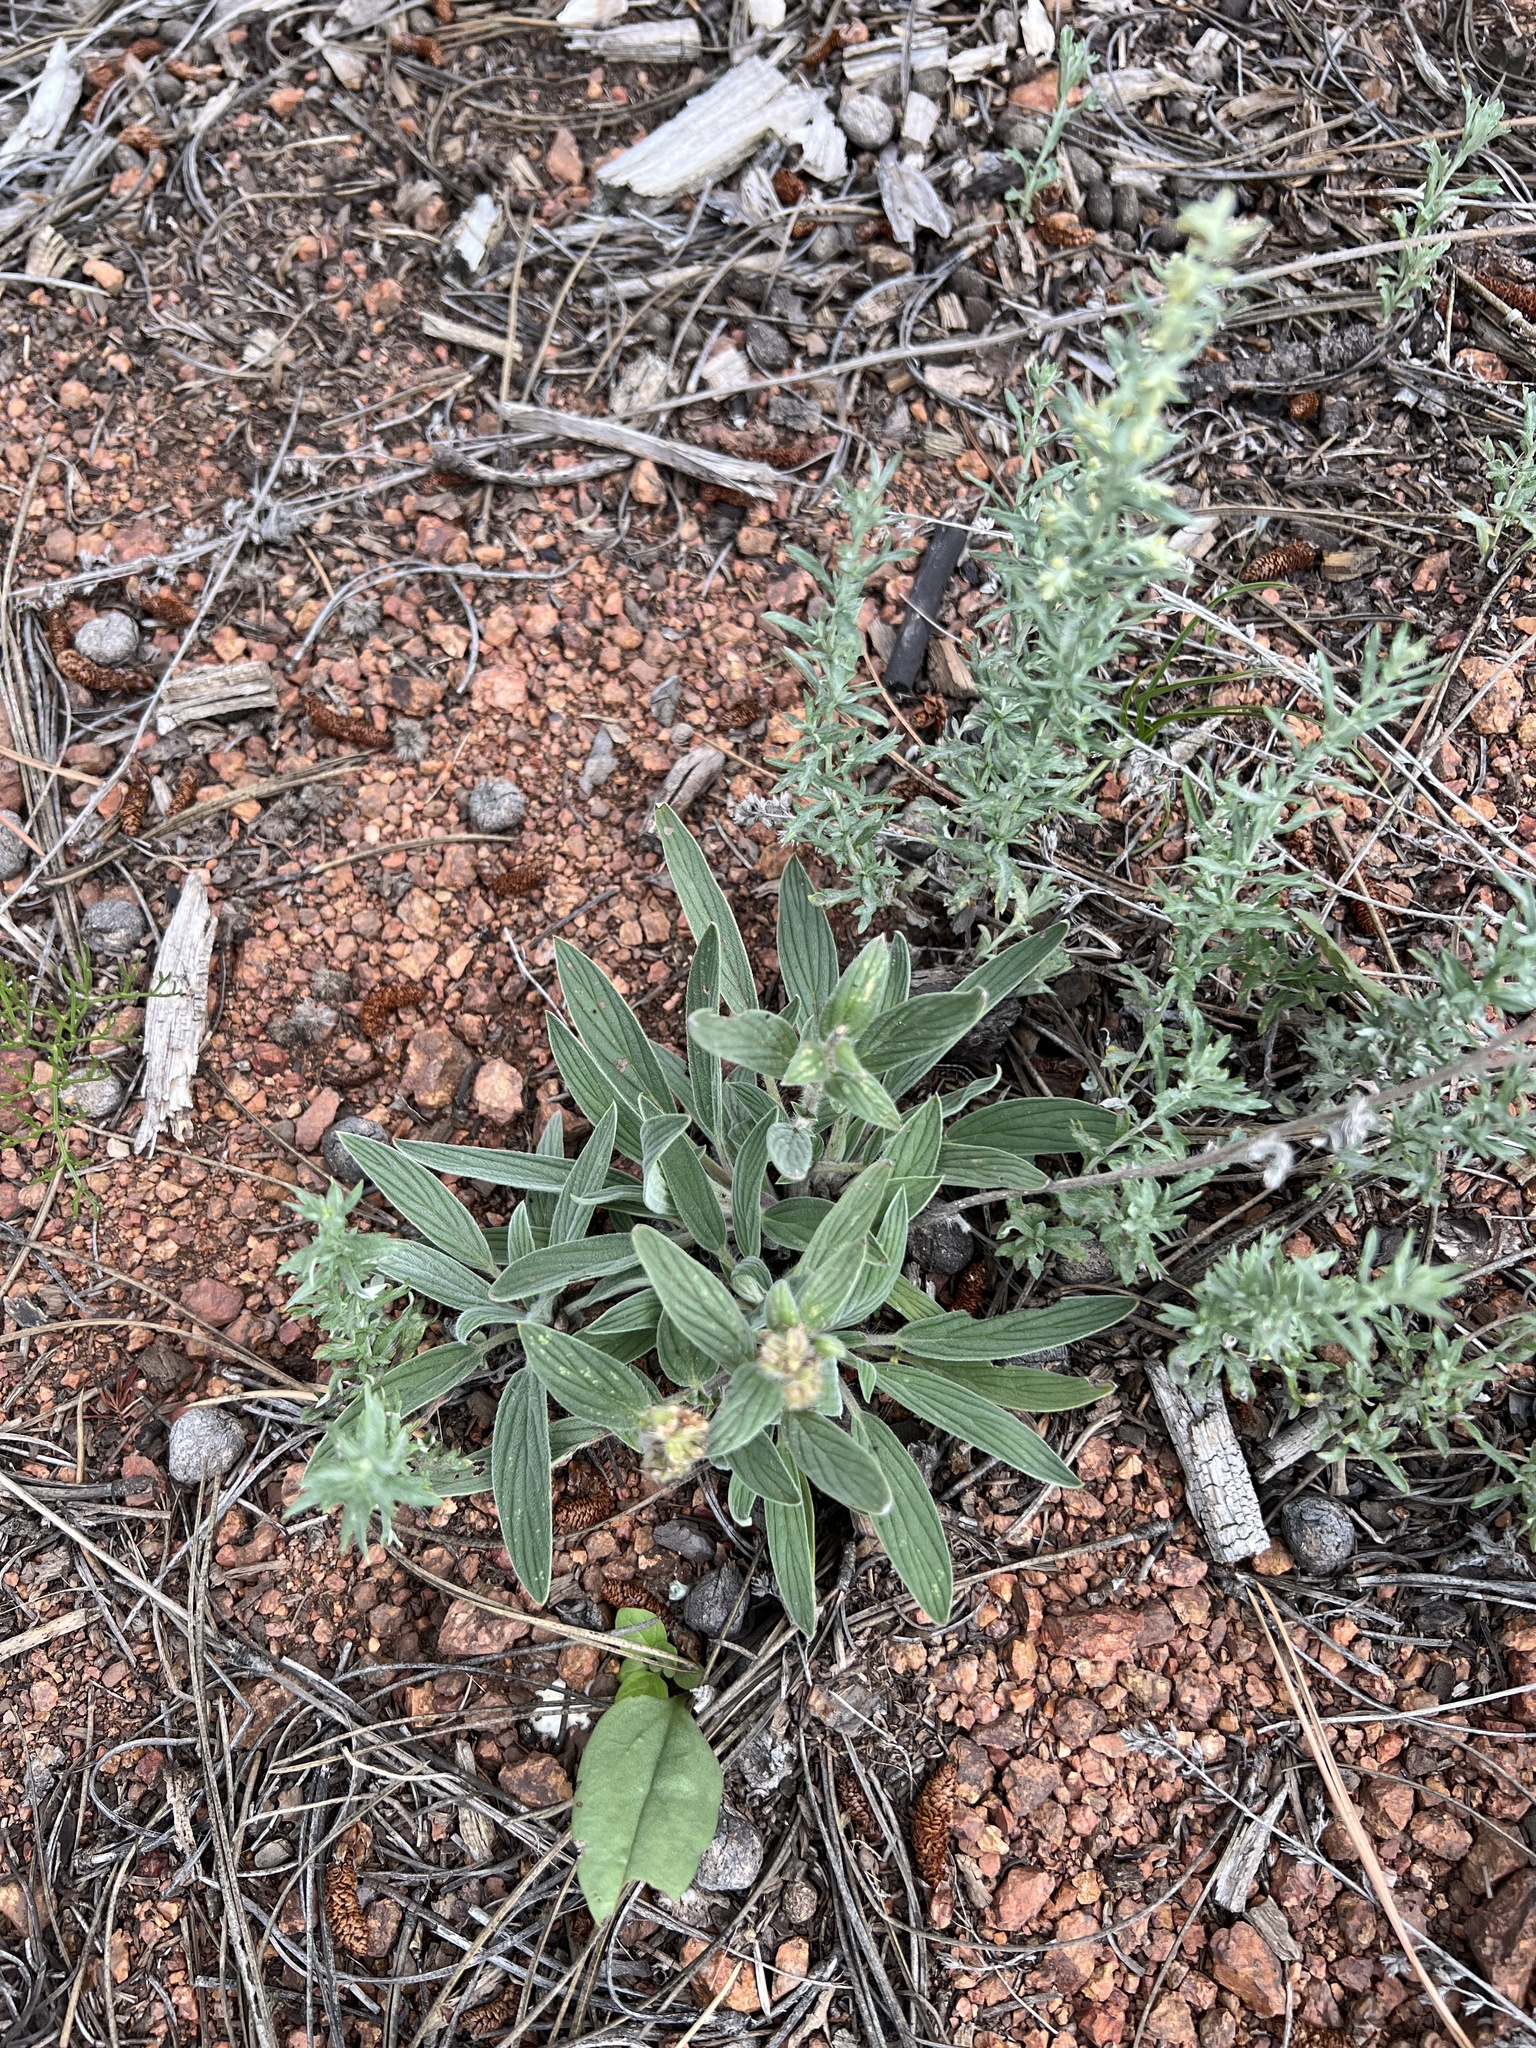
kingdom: Plantae
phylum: Tracheophyta
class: Magnoliopsida
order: Boraginales
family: Hydrophyllaceae
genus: Phacelia
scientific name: Phacelia heterophylla
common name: Variable-leaved phacelia
